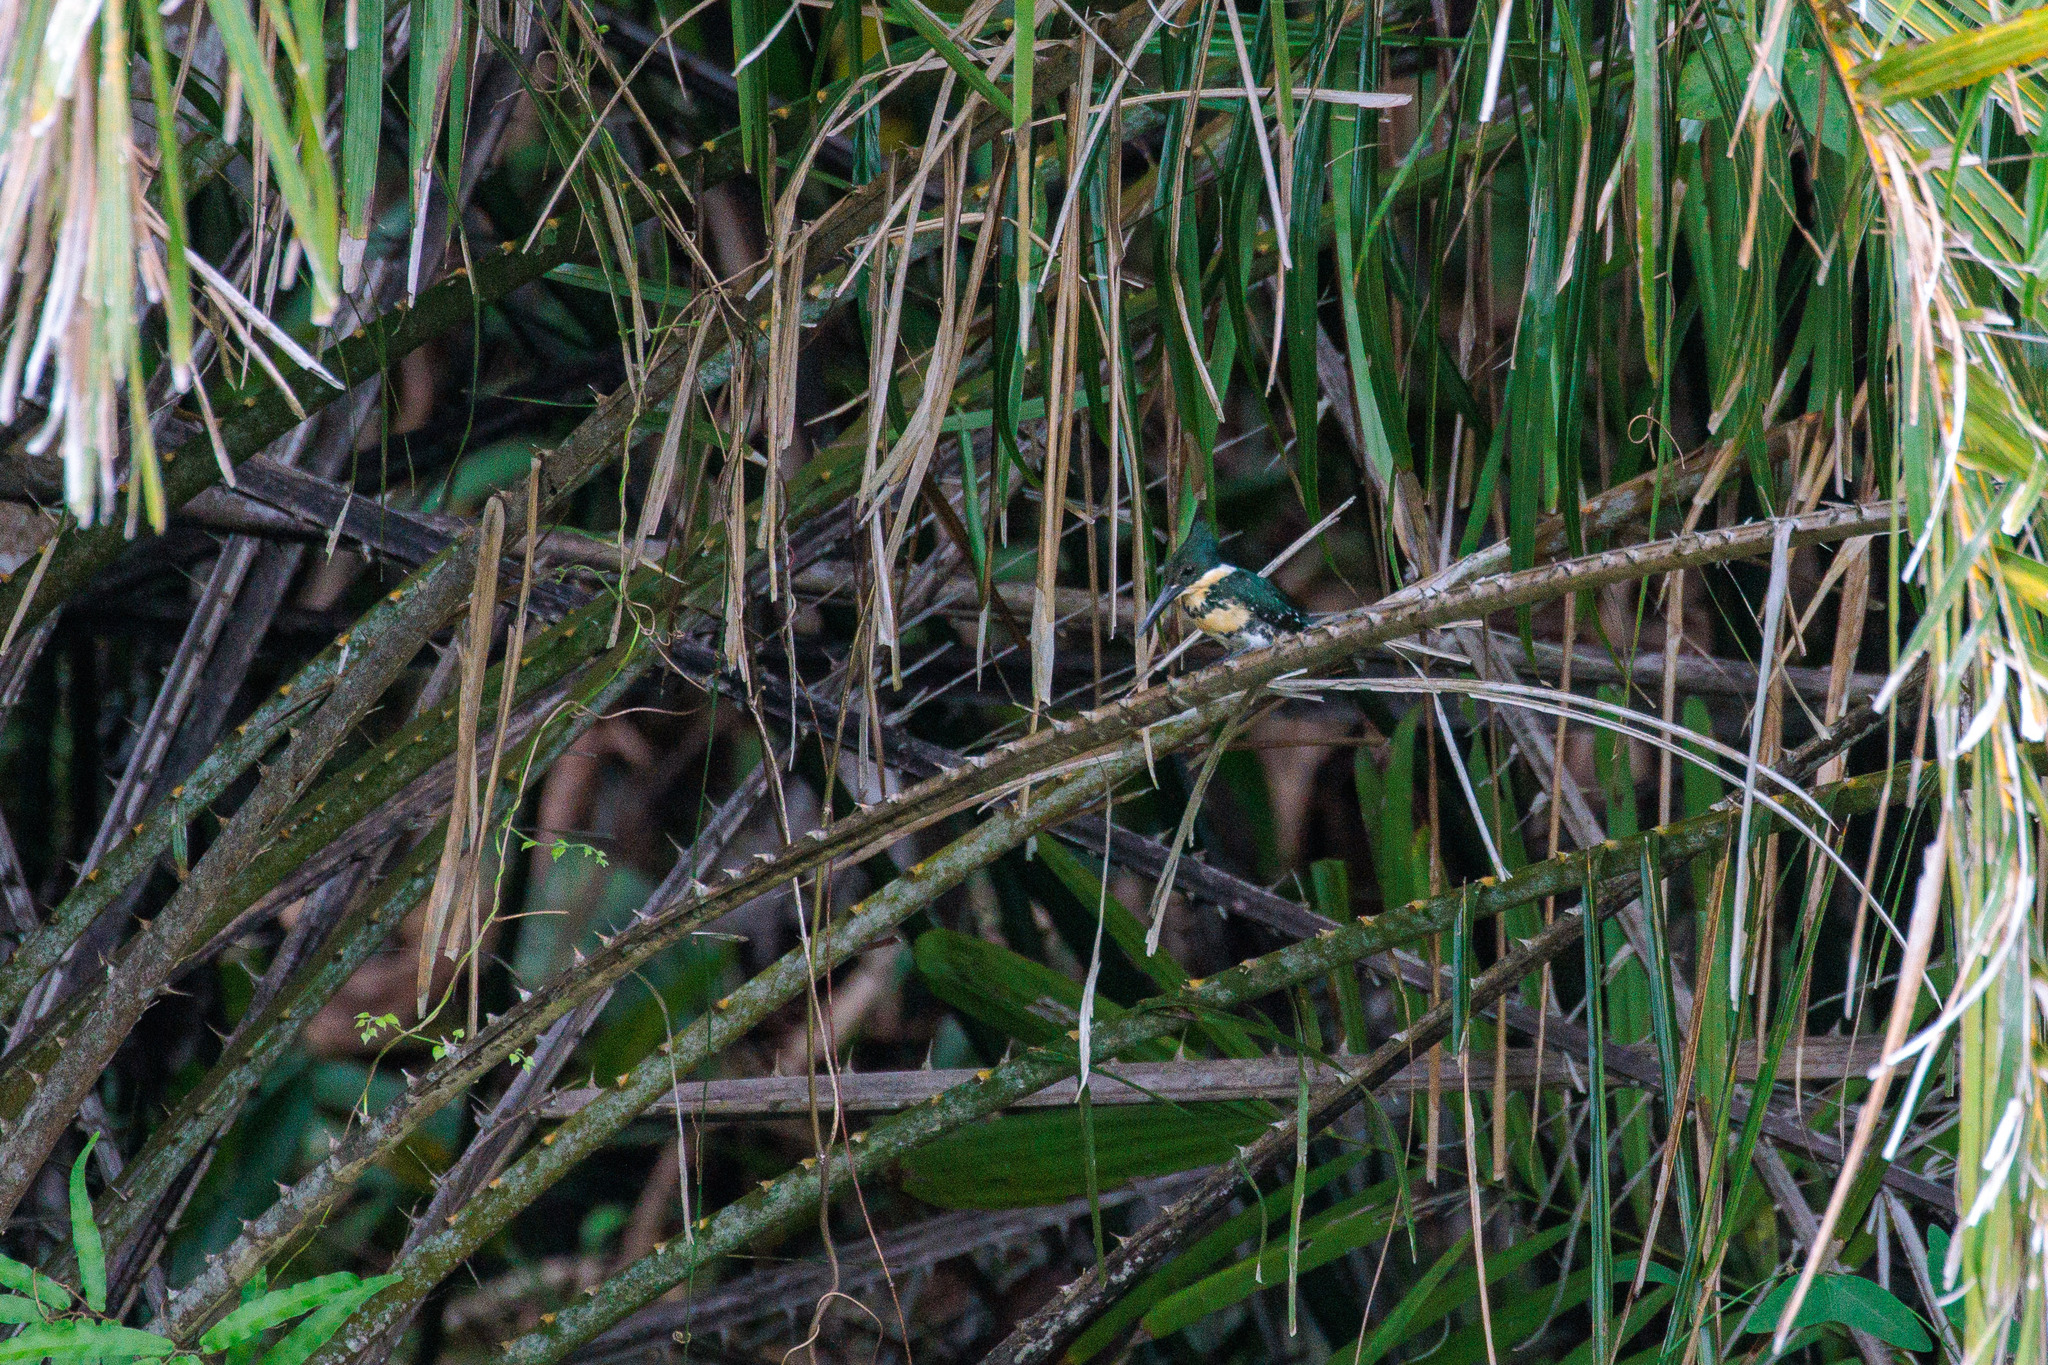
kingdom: Animalia
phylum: Chordata
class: Aves
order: Coraciiformes
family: Alcedinidae
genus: Chloroceryle
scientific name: Chloroceryle americana
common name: Green kingfisher
